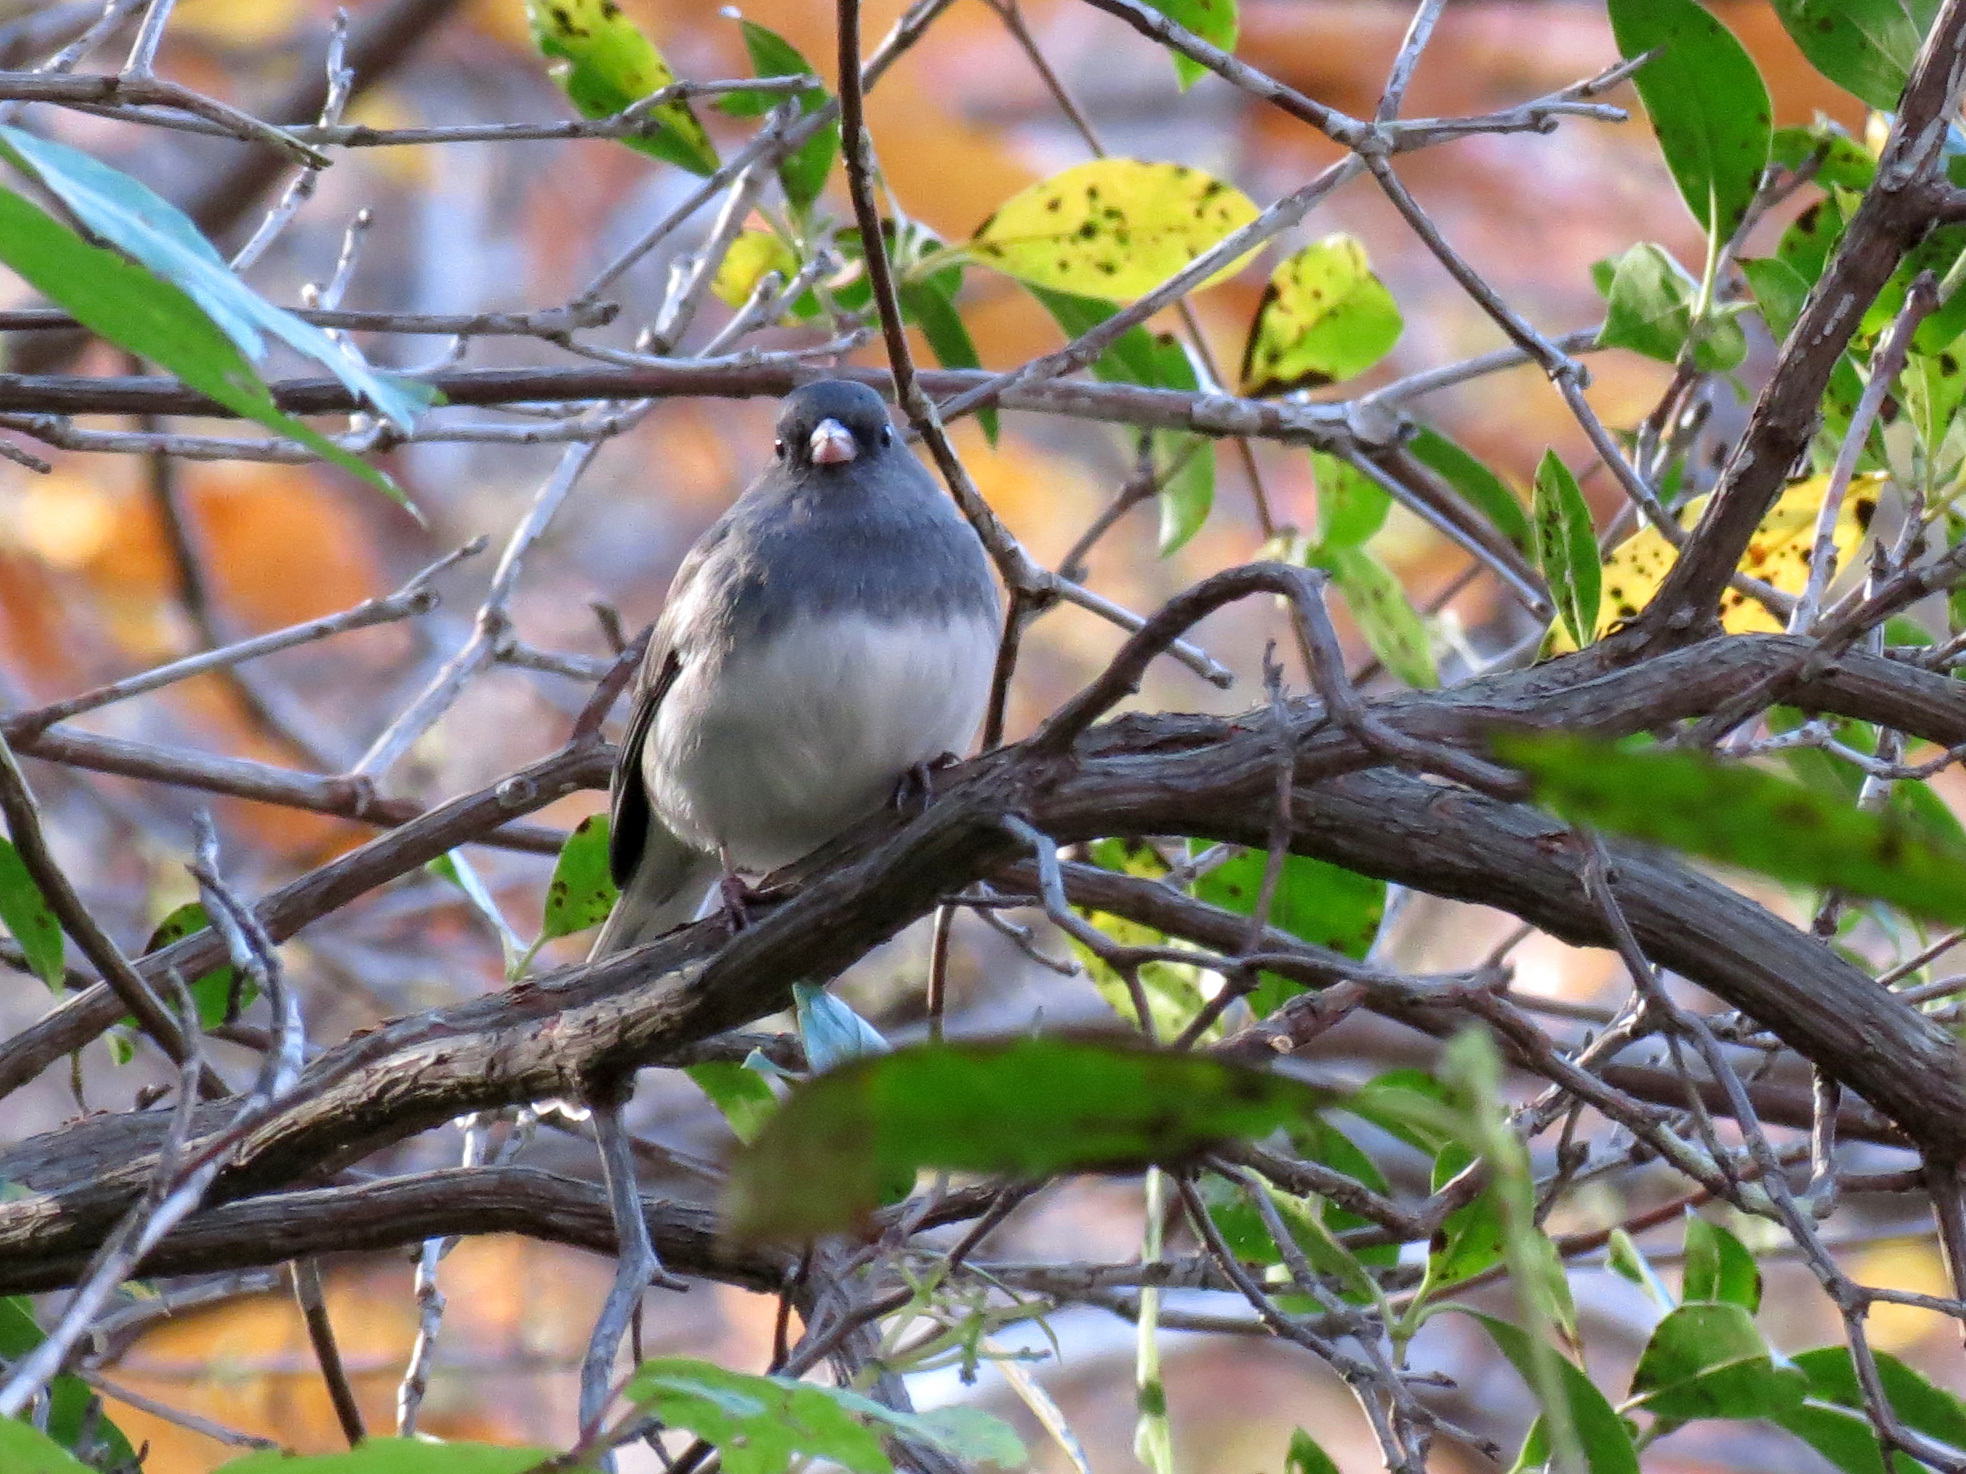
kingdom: Animalia
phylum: Chordata
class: Aves
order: Passeriformes
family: Passerellidae
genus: Junco
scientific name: Junco hyemalis
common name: Dark-eyed junco
